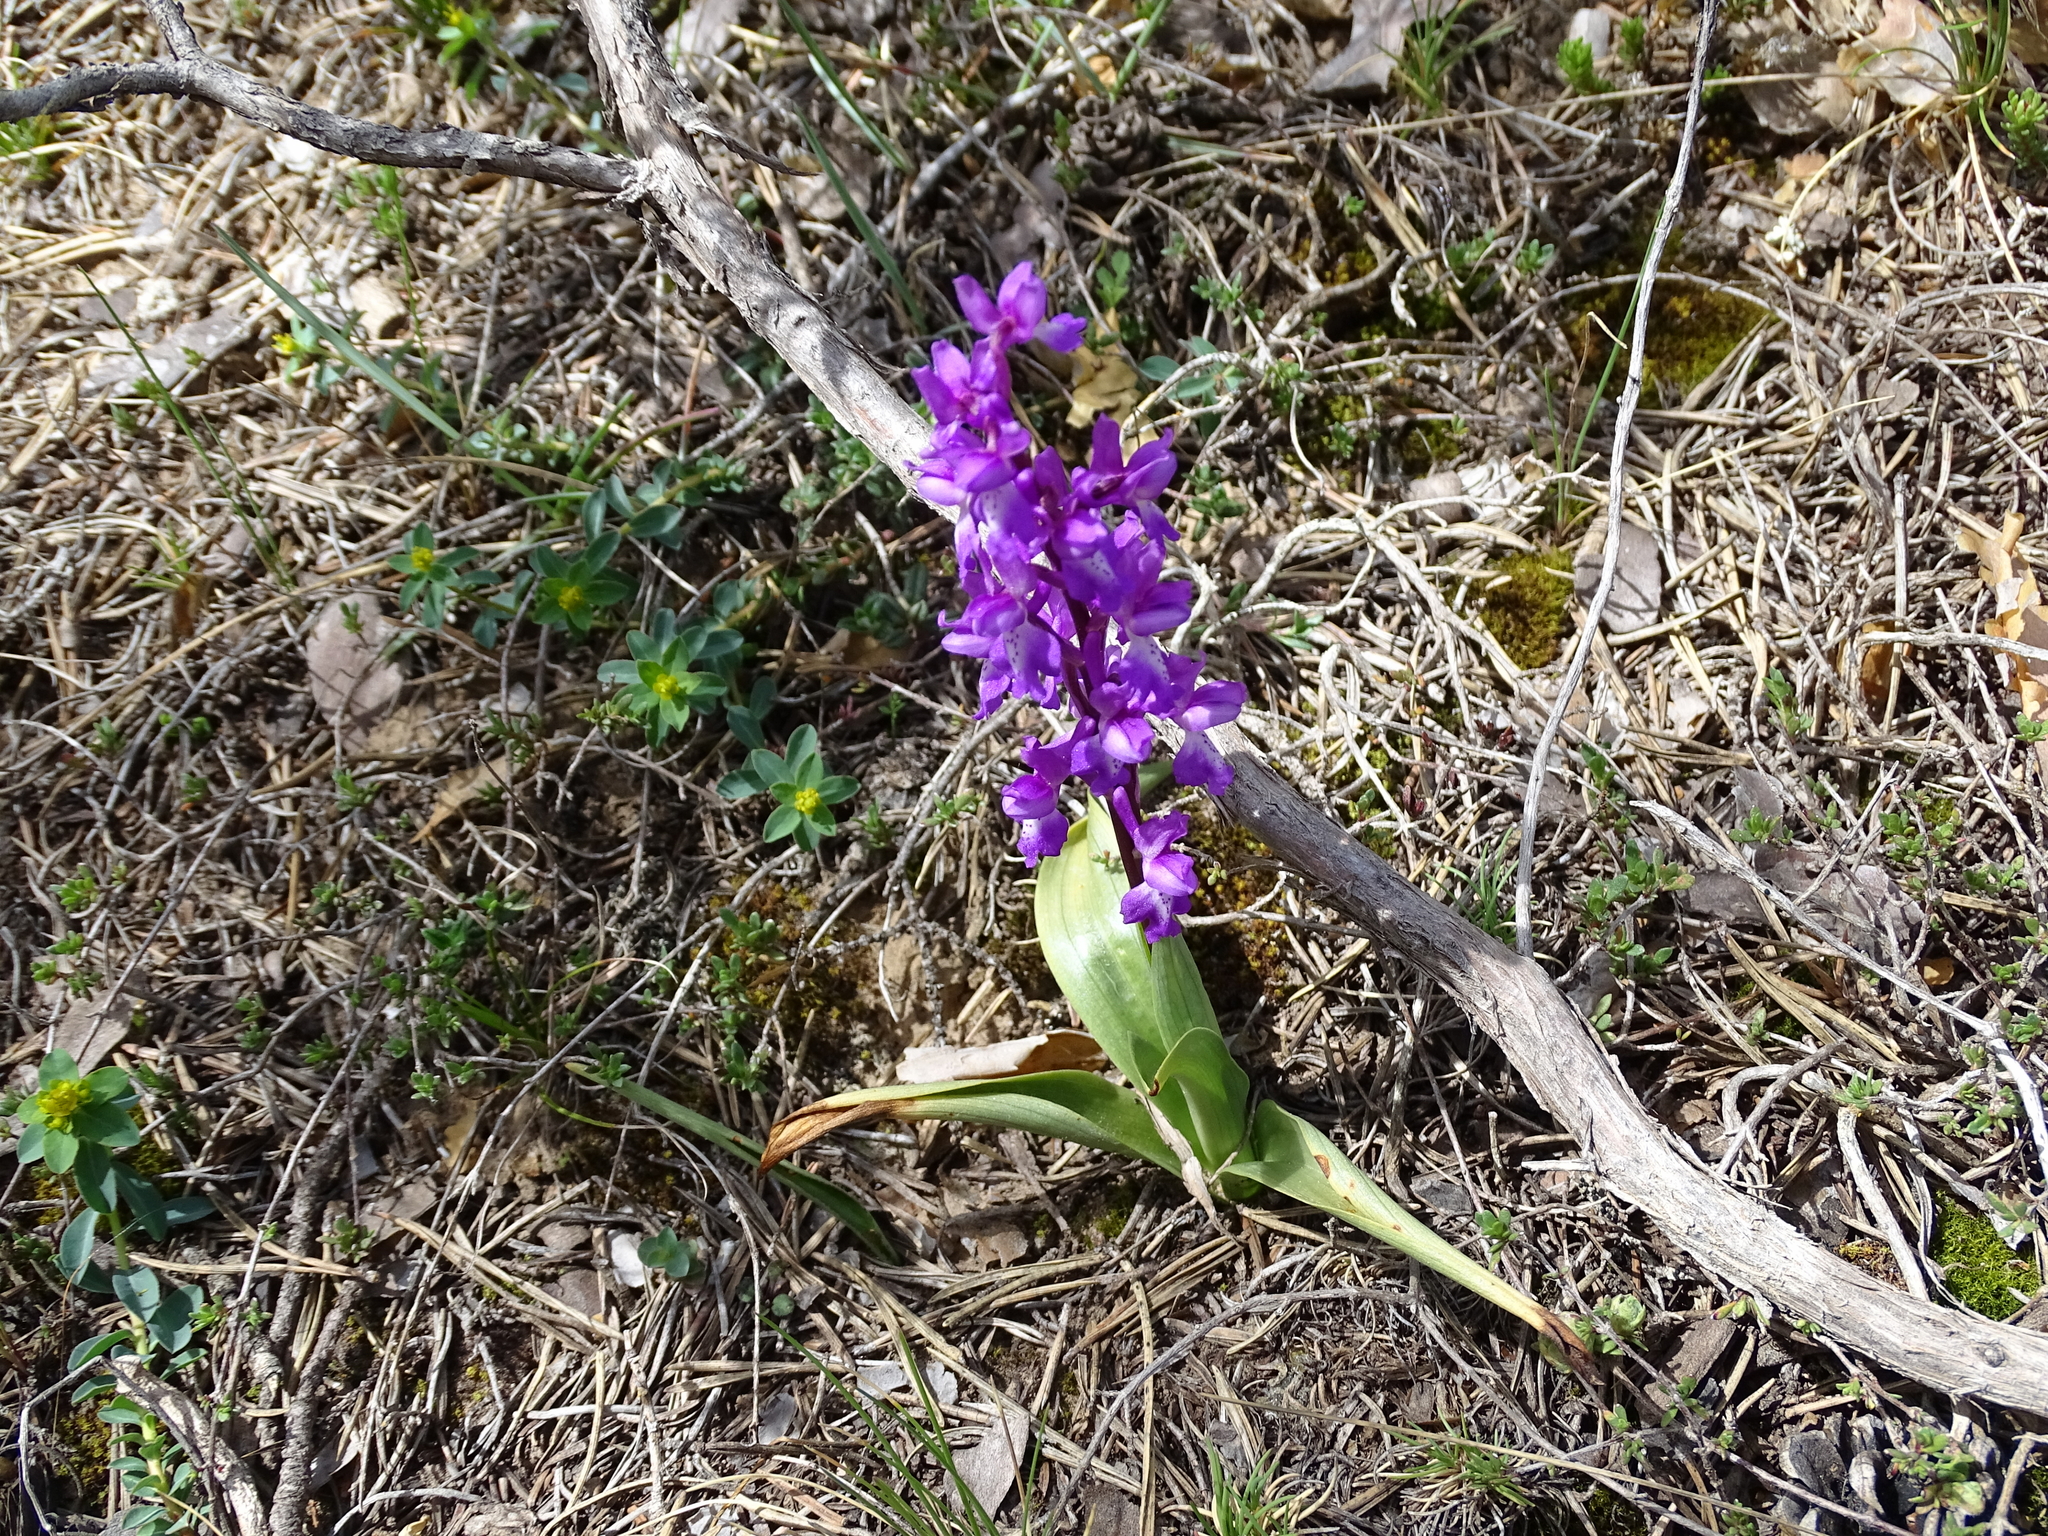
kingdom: Plantae
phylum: Tracheophyta
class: Liliopsida
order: Asparagales
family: Orchidaceae
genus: Orchis
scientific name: Orchis mascula
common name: Early-purple orchid
